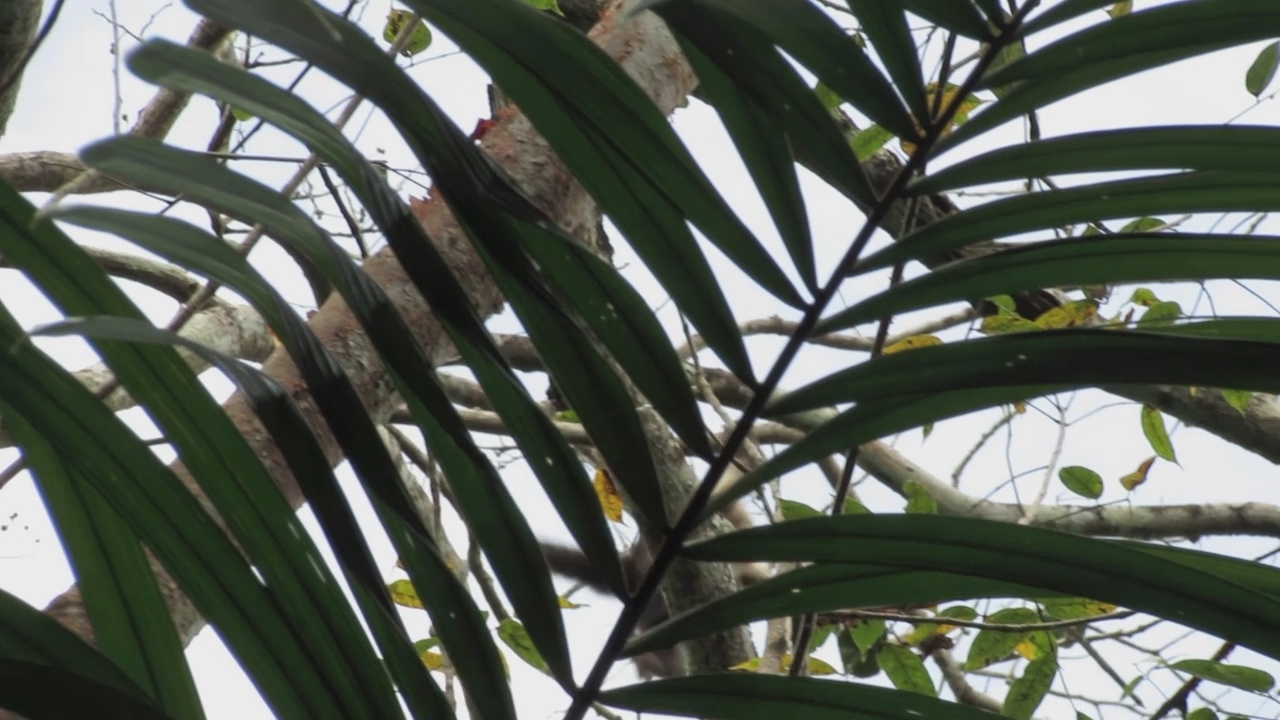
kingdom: Animalia
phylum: Chordata
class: Mammalia
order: Primates
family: Cebidae
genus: Cebus
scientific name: Cebus imitator
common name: Panamanian white-faced capuchin
